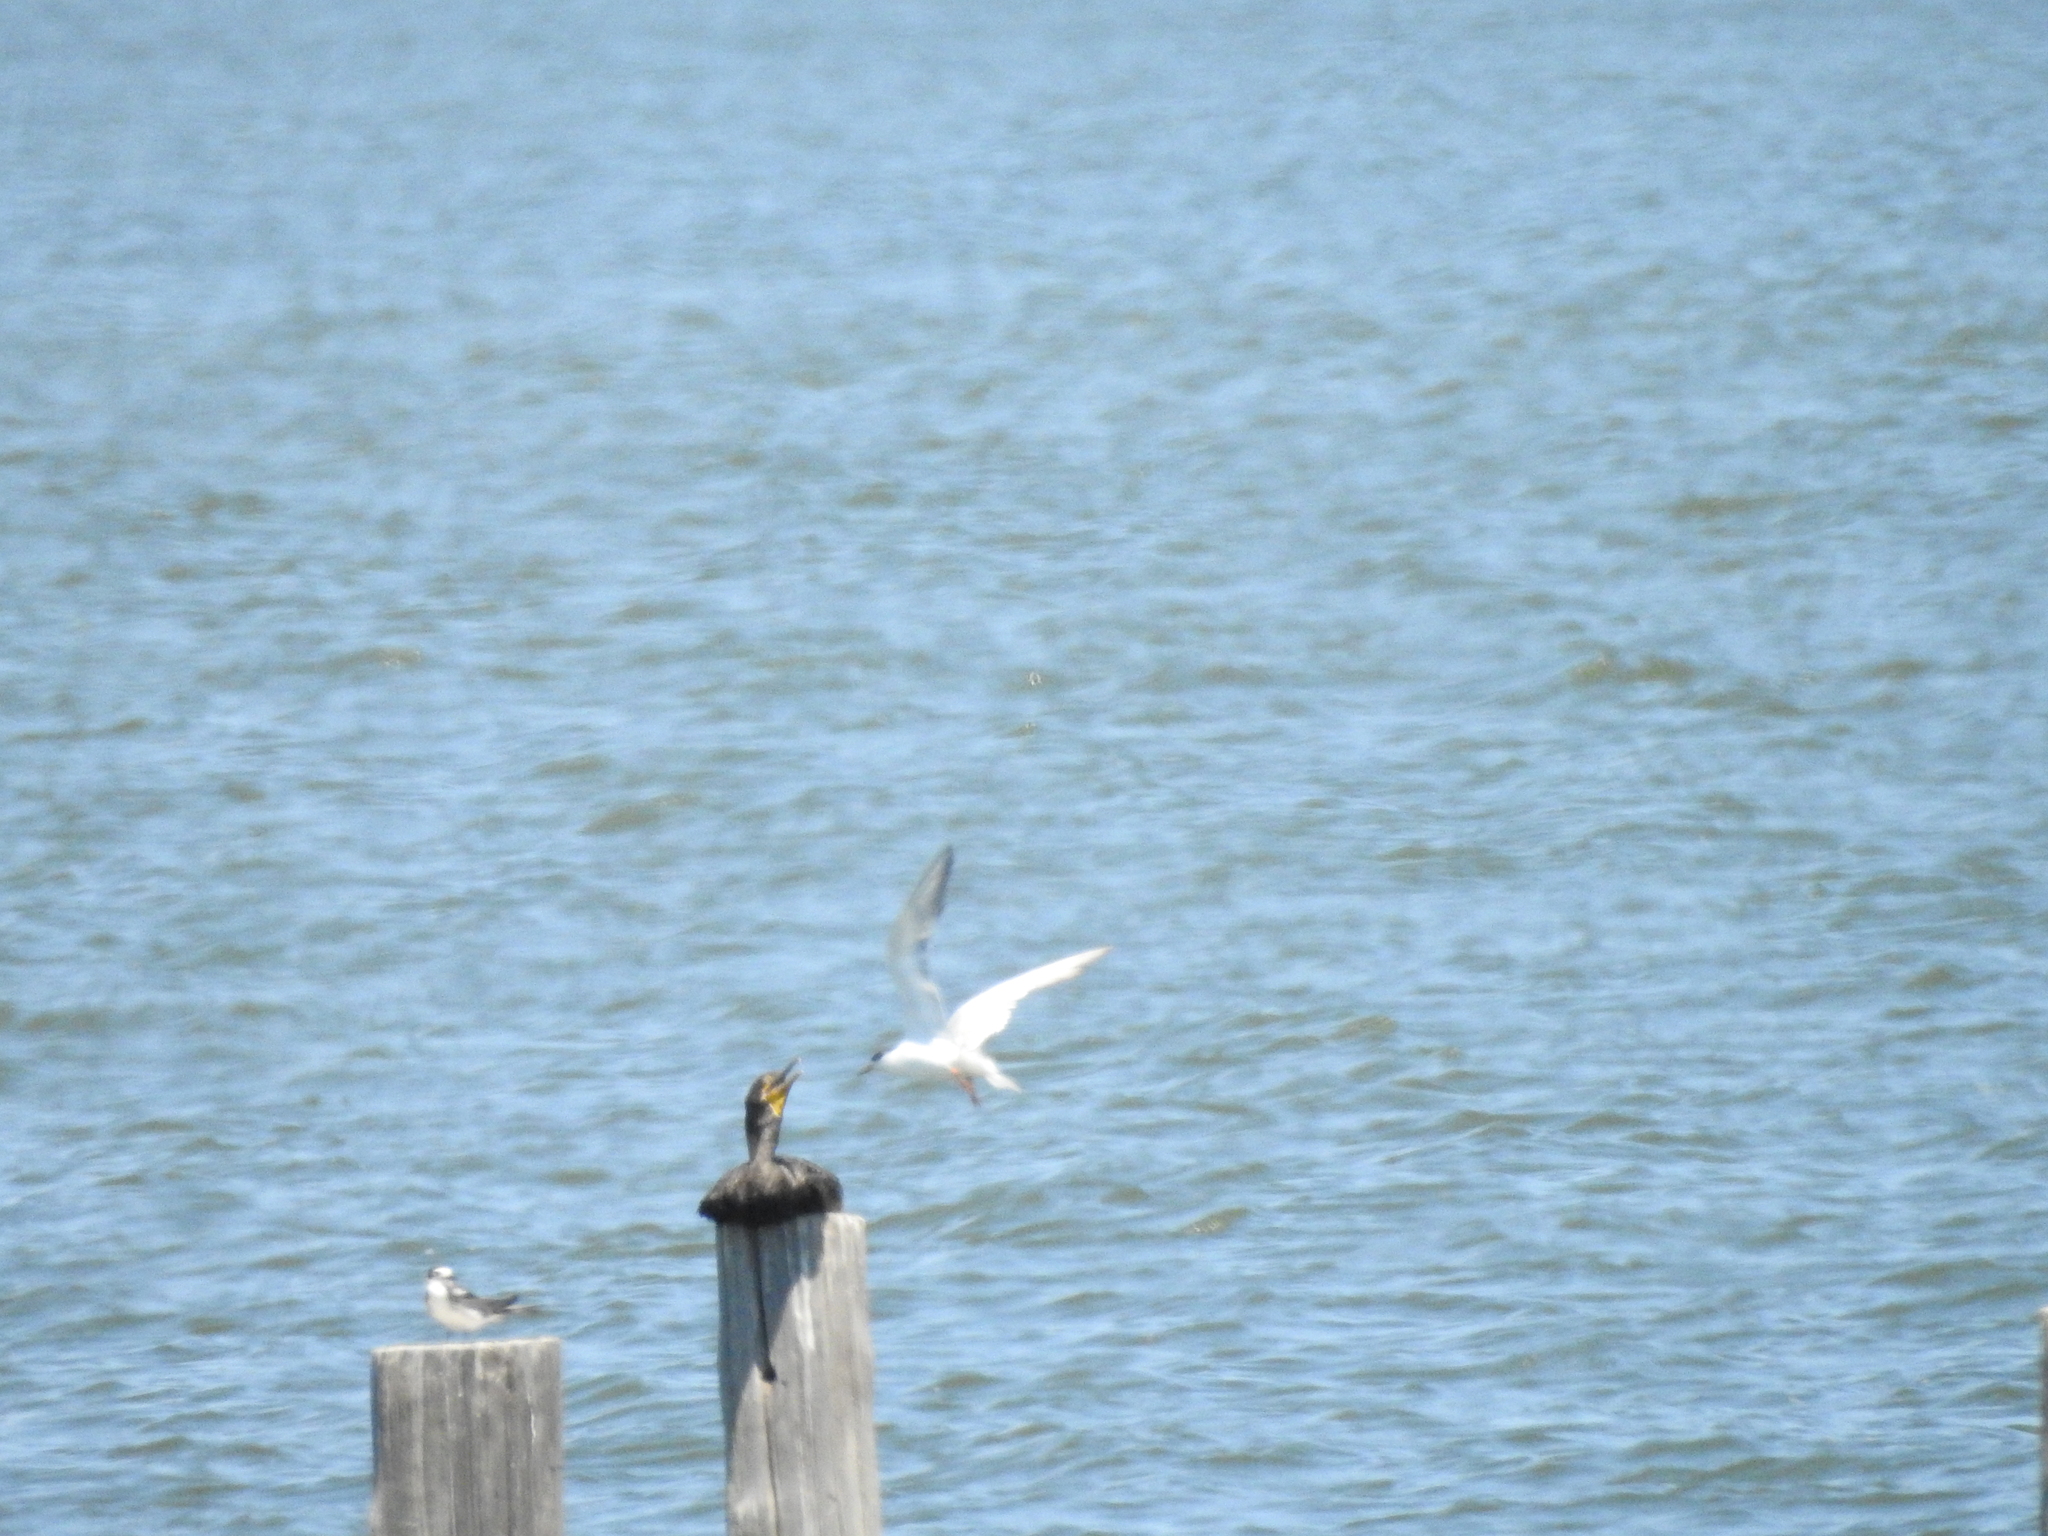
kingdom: Animalia
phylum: Chordata
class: Aves
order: Charadriiformes
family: Laridae
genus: Sterna
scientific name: Sterna forsteri
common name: Forster's tern
